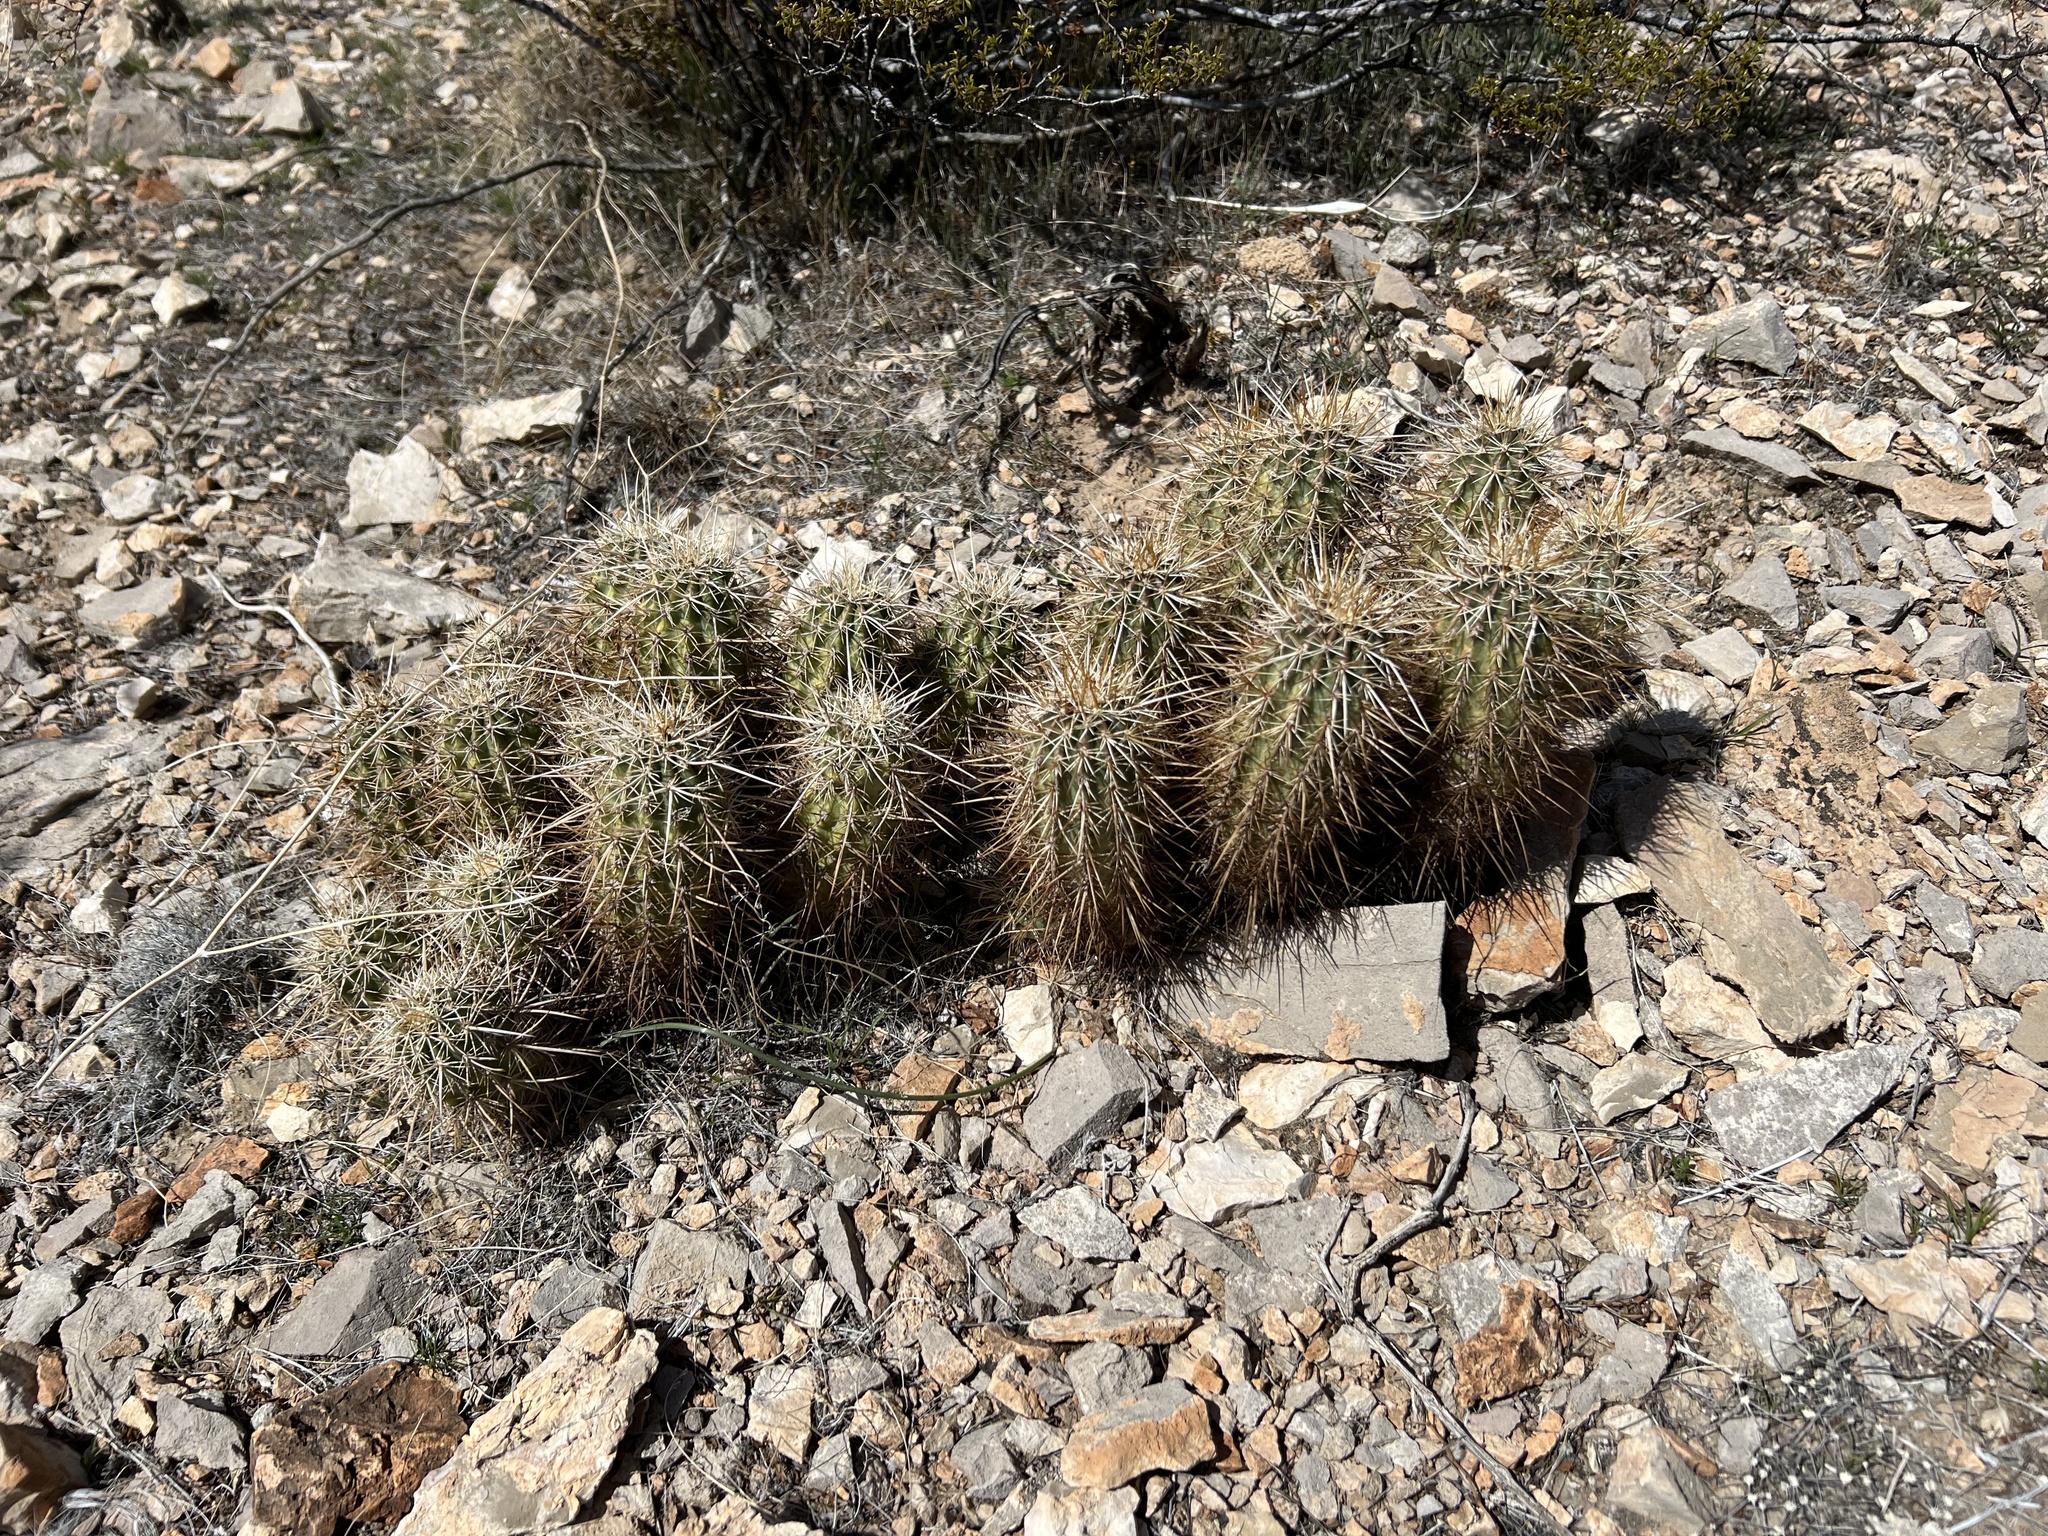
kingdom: Plantae
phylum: Tracheophyta
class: Magnoliopsida
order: Caryophyllales
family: Cactaceae
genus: Echinocereus
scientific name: Echinocereus engelmannii
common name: Engelmann's hedgehog cactus
